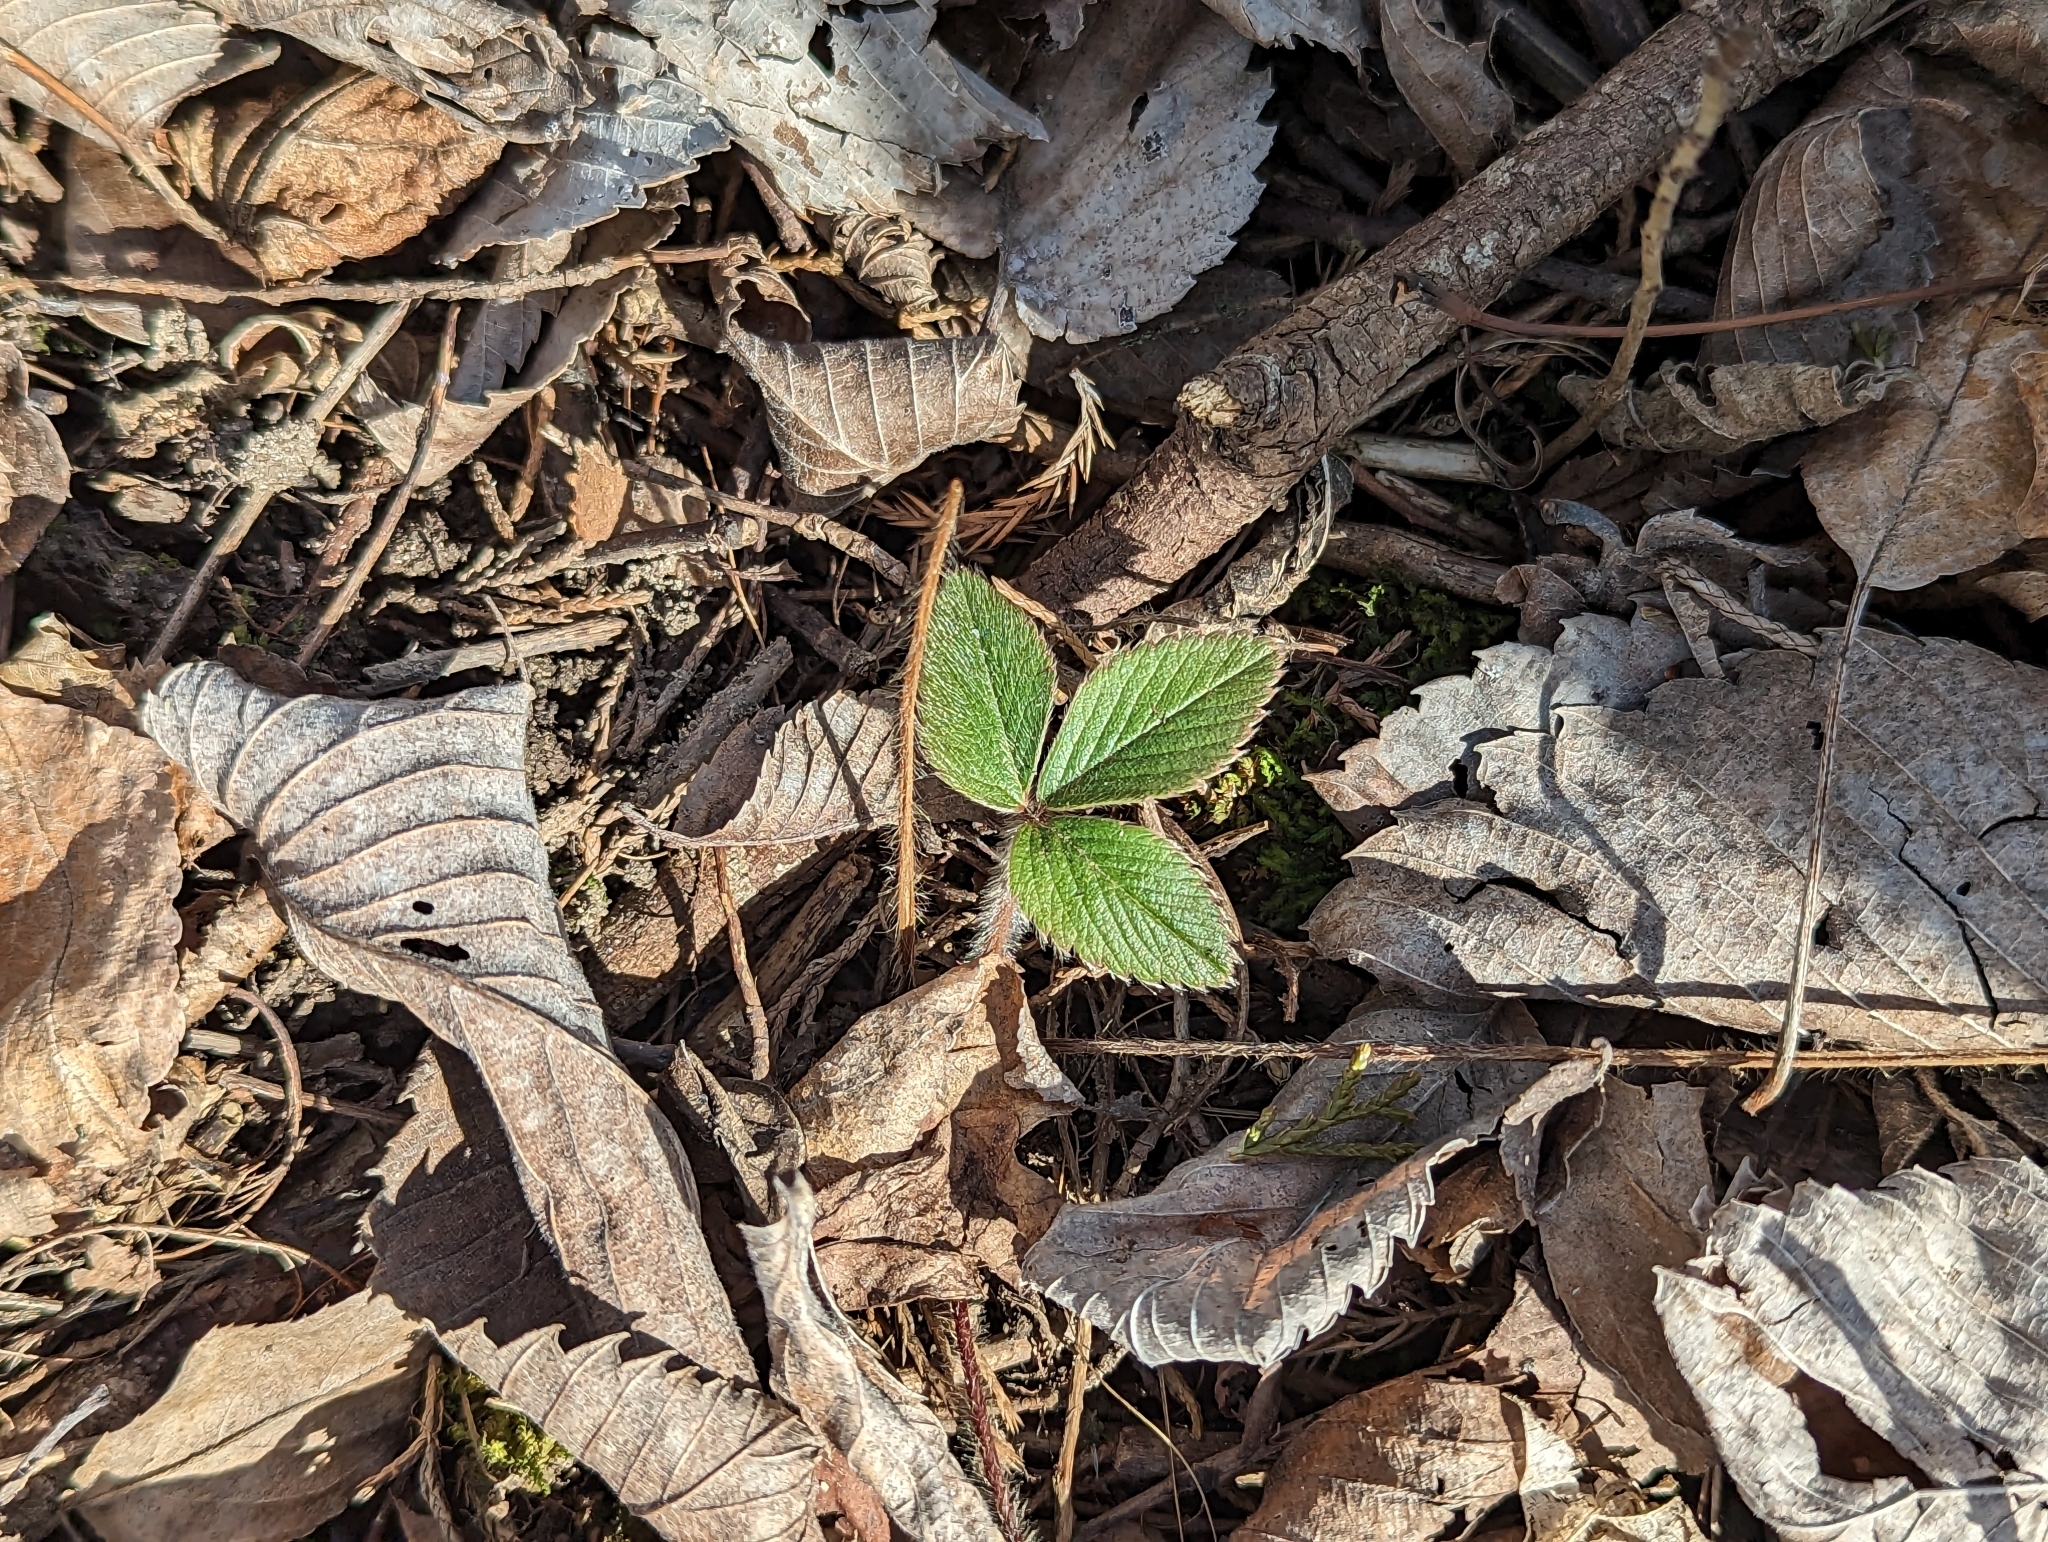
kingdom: Plantae
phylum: Tracheophyta
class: Magnoliopsida
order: Rosales
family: Rosaceae
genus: Fragaria
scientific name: Fragaria virginiana
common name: Thickleaved wild strawberry
